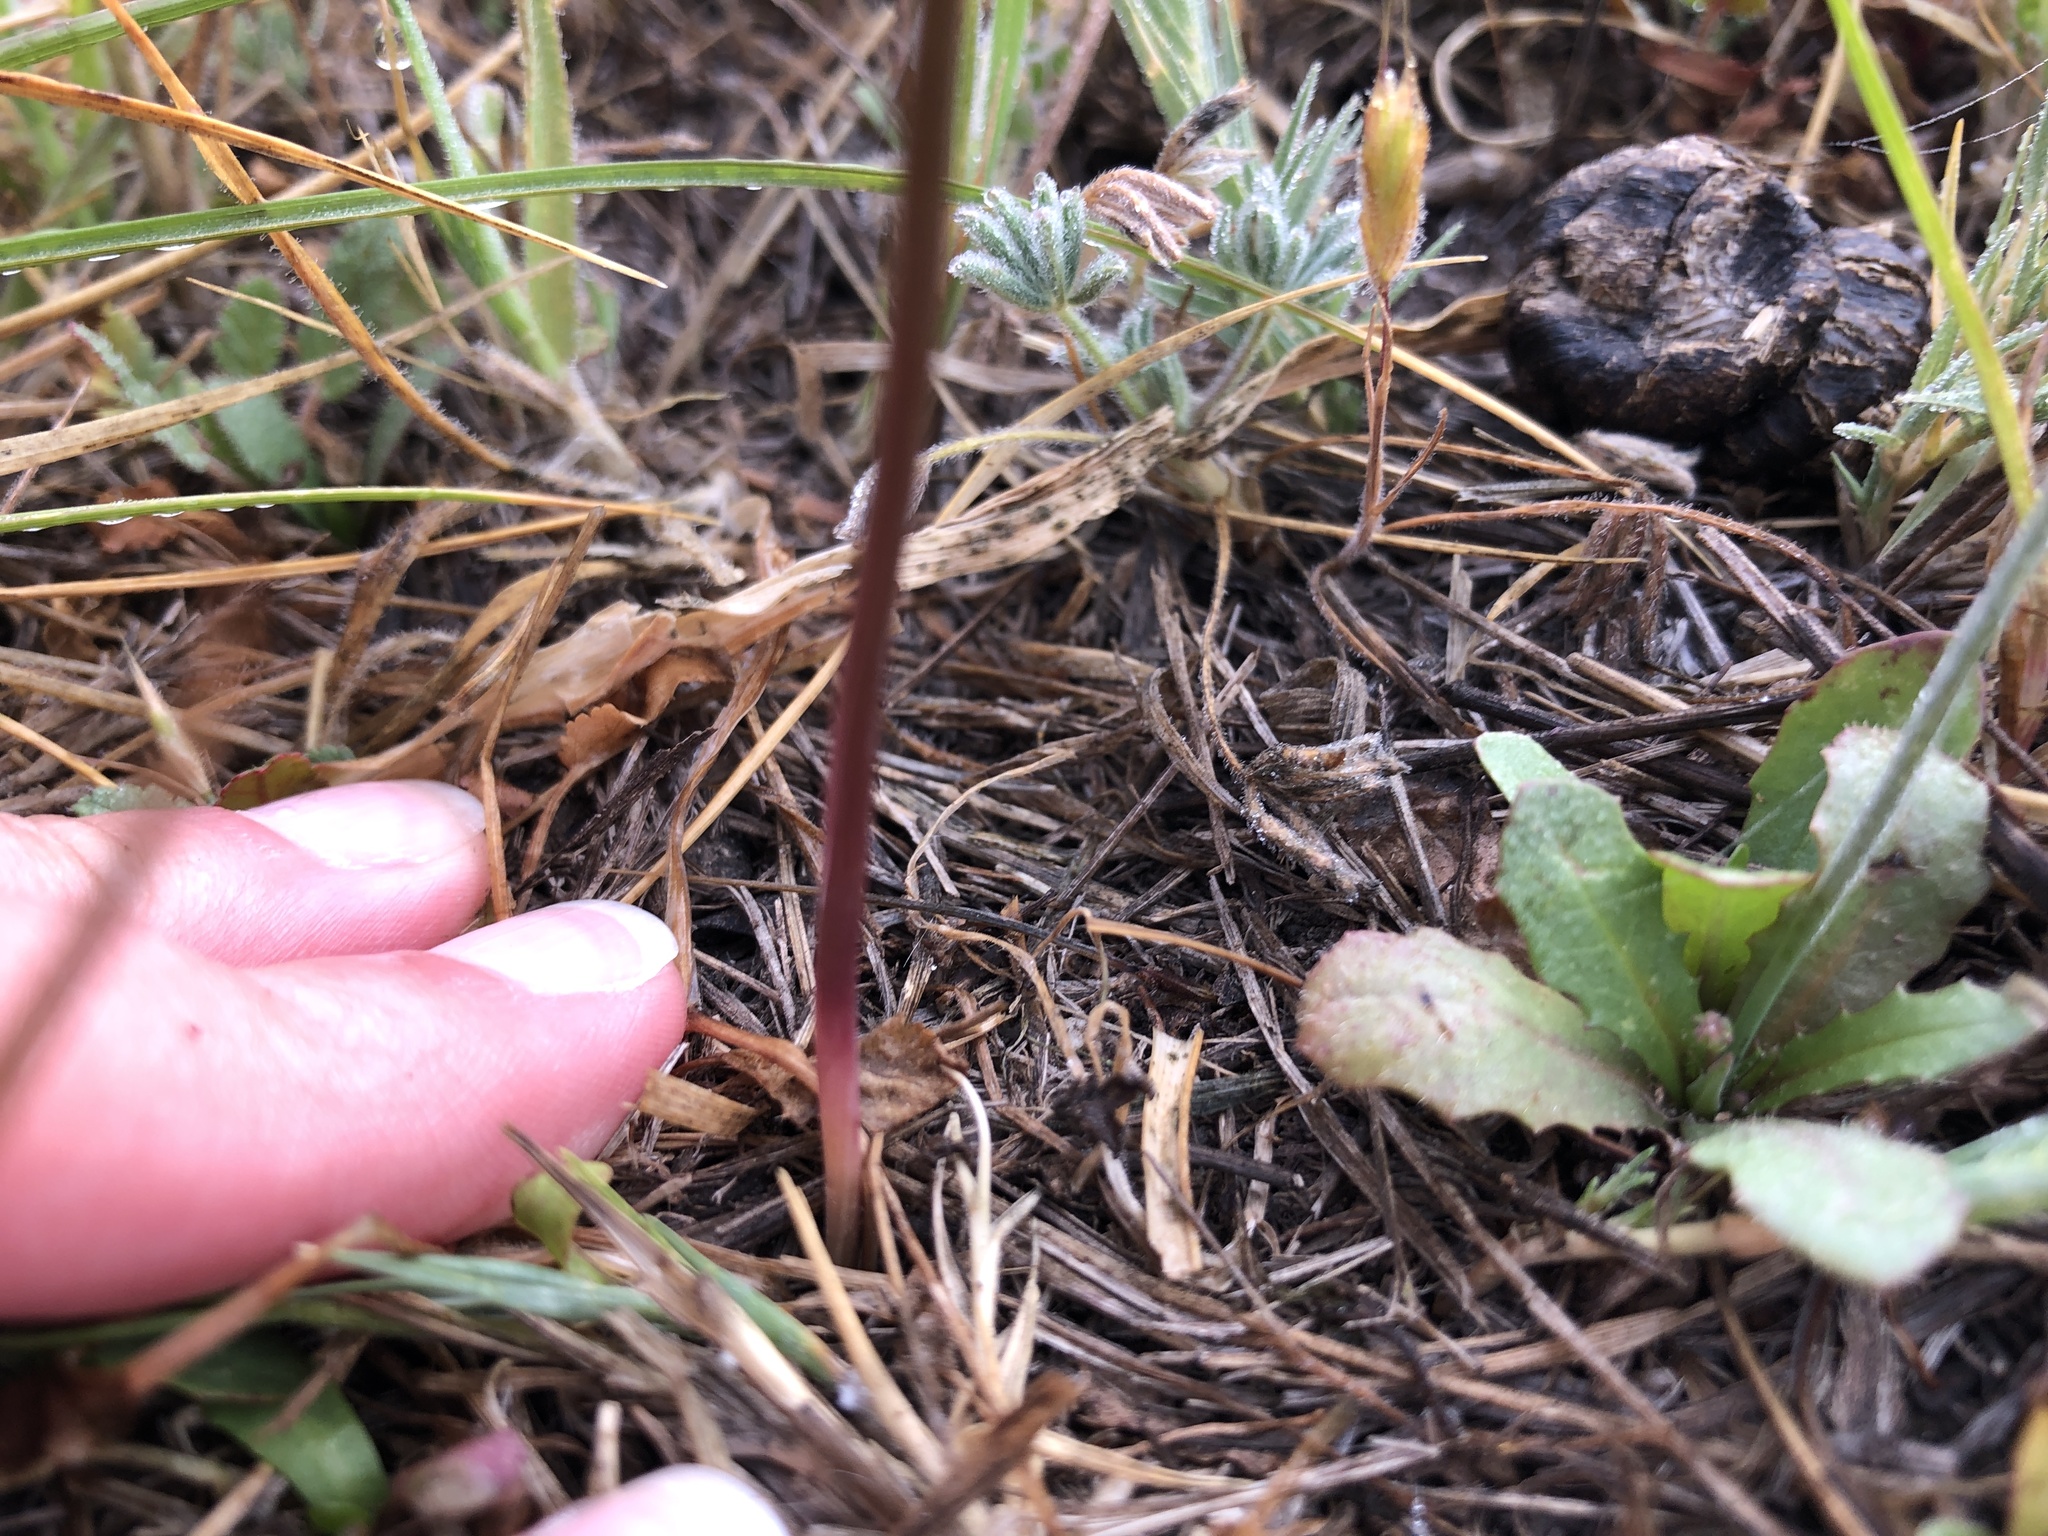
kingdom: Plantae
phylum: Tracheophyta
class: Liliopsida
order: Asparagales
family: Asparagaceae
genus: Triteleia
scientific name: Triteleia ixioides
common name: Yellow-brodiaea
